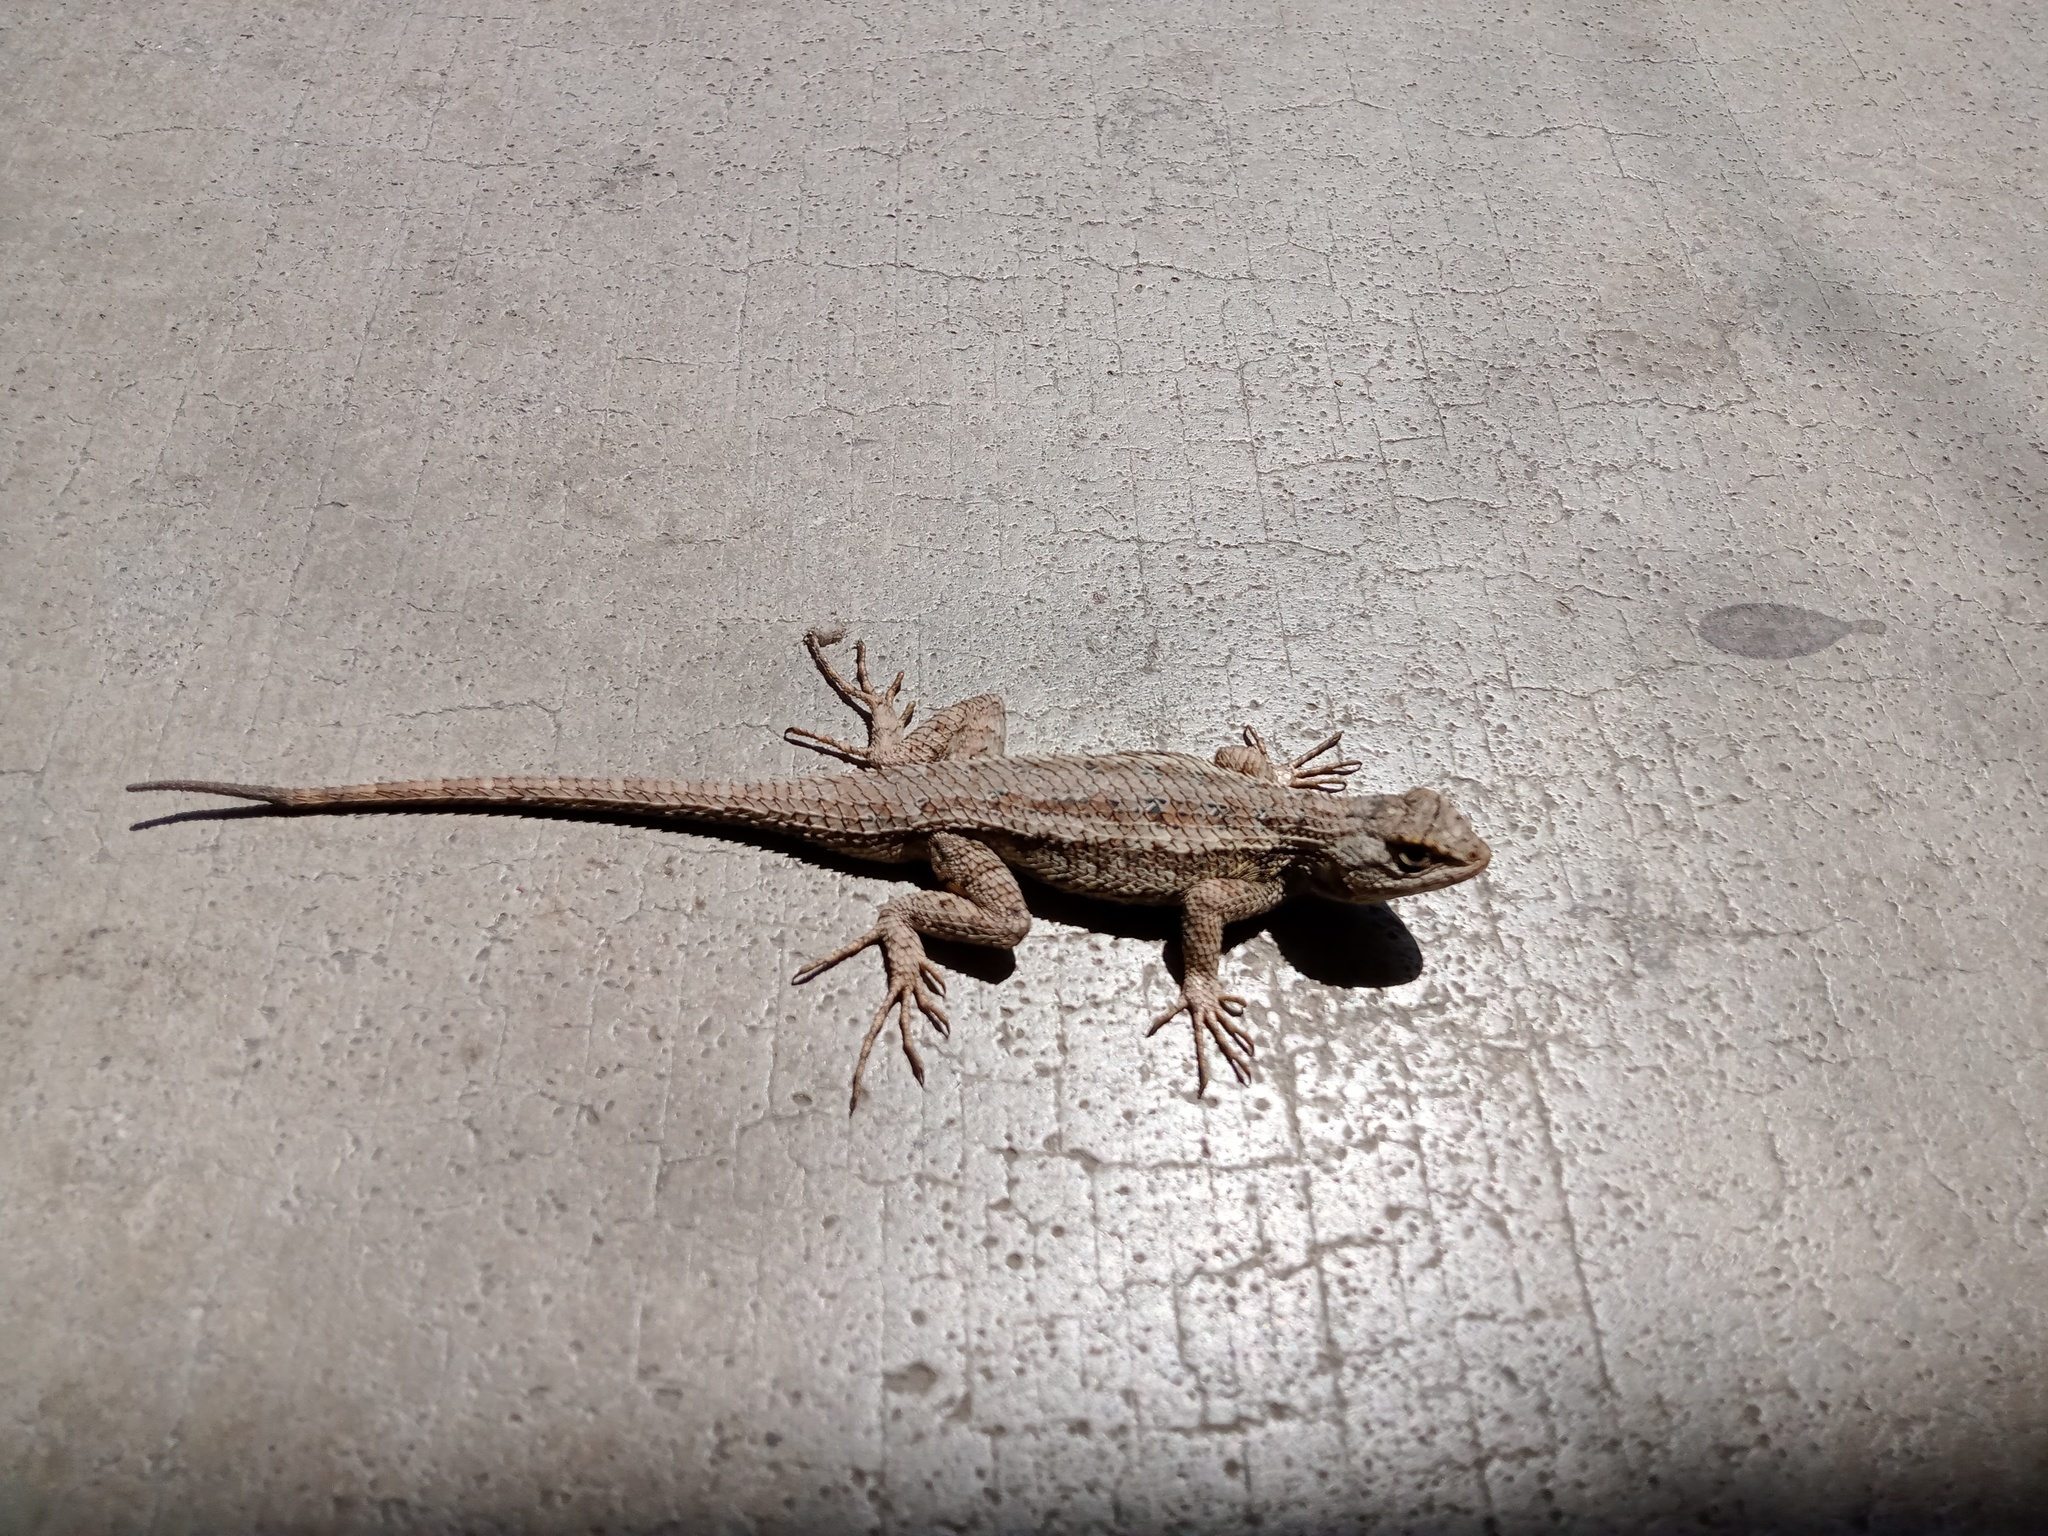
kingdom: Animalia
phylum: Chordata
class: Squamata
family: Phrynosomatidae
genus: Sceloporus
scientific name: Sceloporus occidentalis
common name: Western fence lizard
